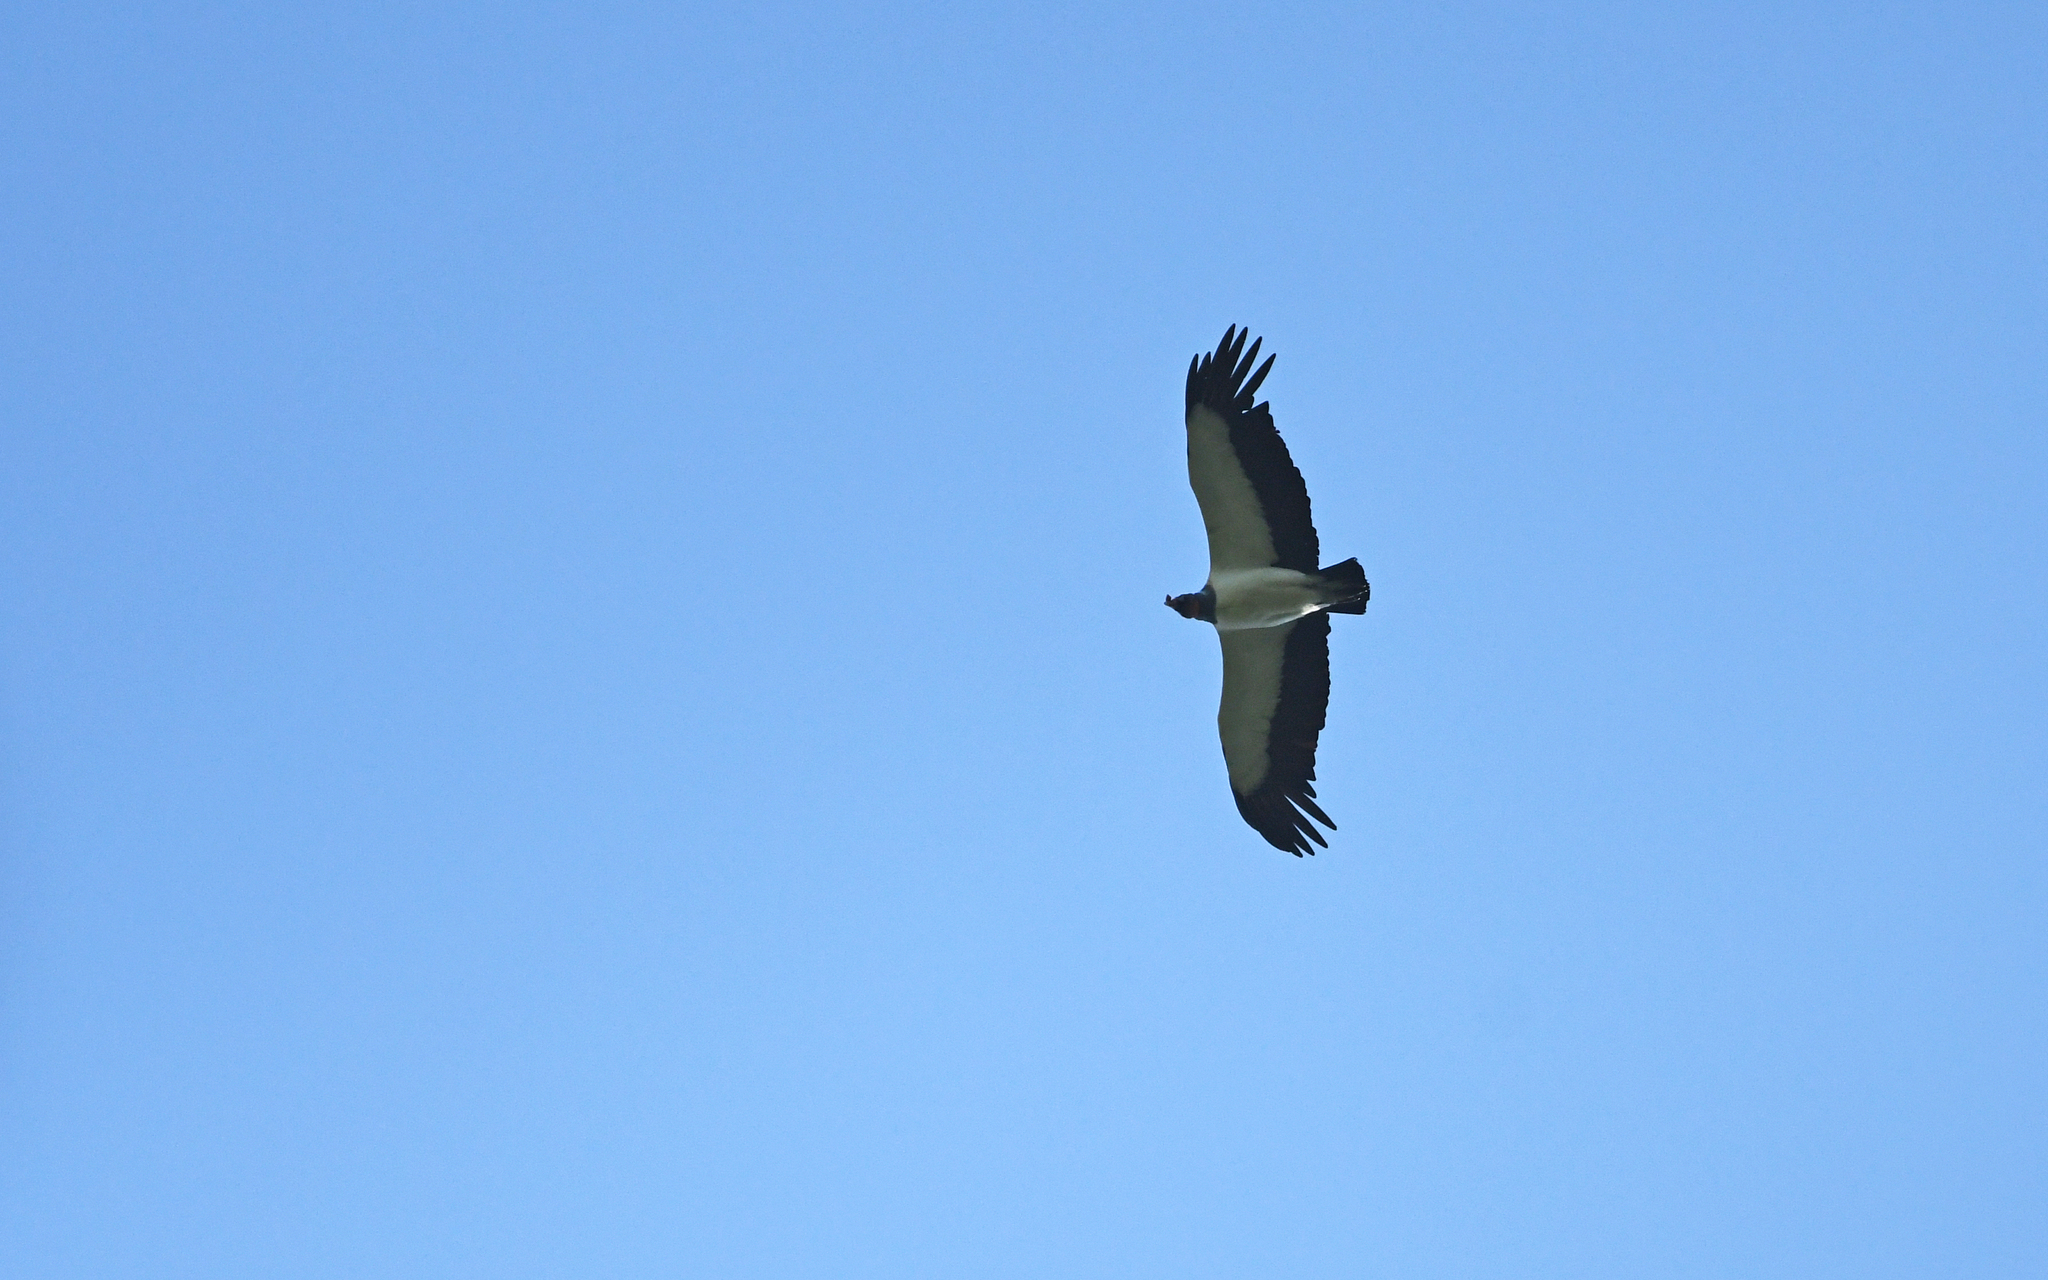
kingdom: Animalia
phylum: Chordata
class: Aves
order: Accipitriformes
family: Cathartidae
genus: Sarcoramphus
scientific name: Sarcoramphus papa
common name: King vulture
